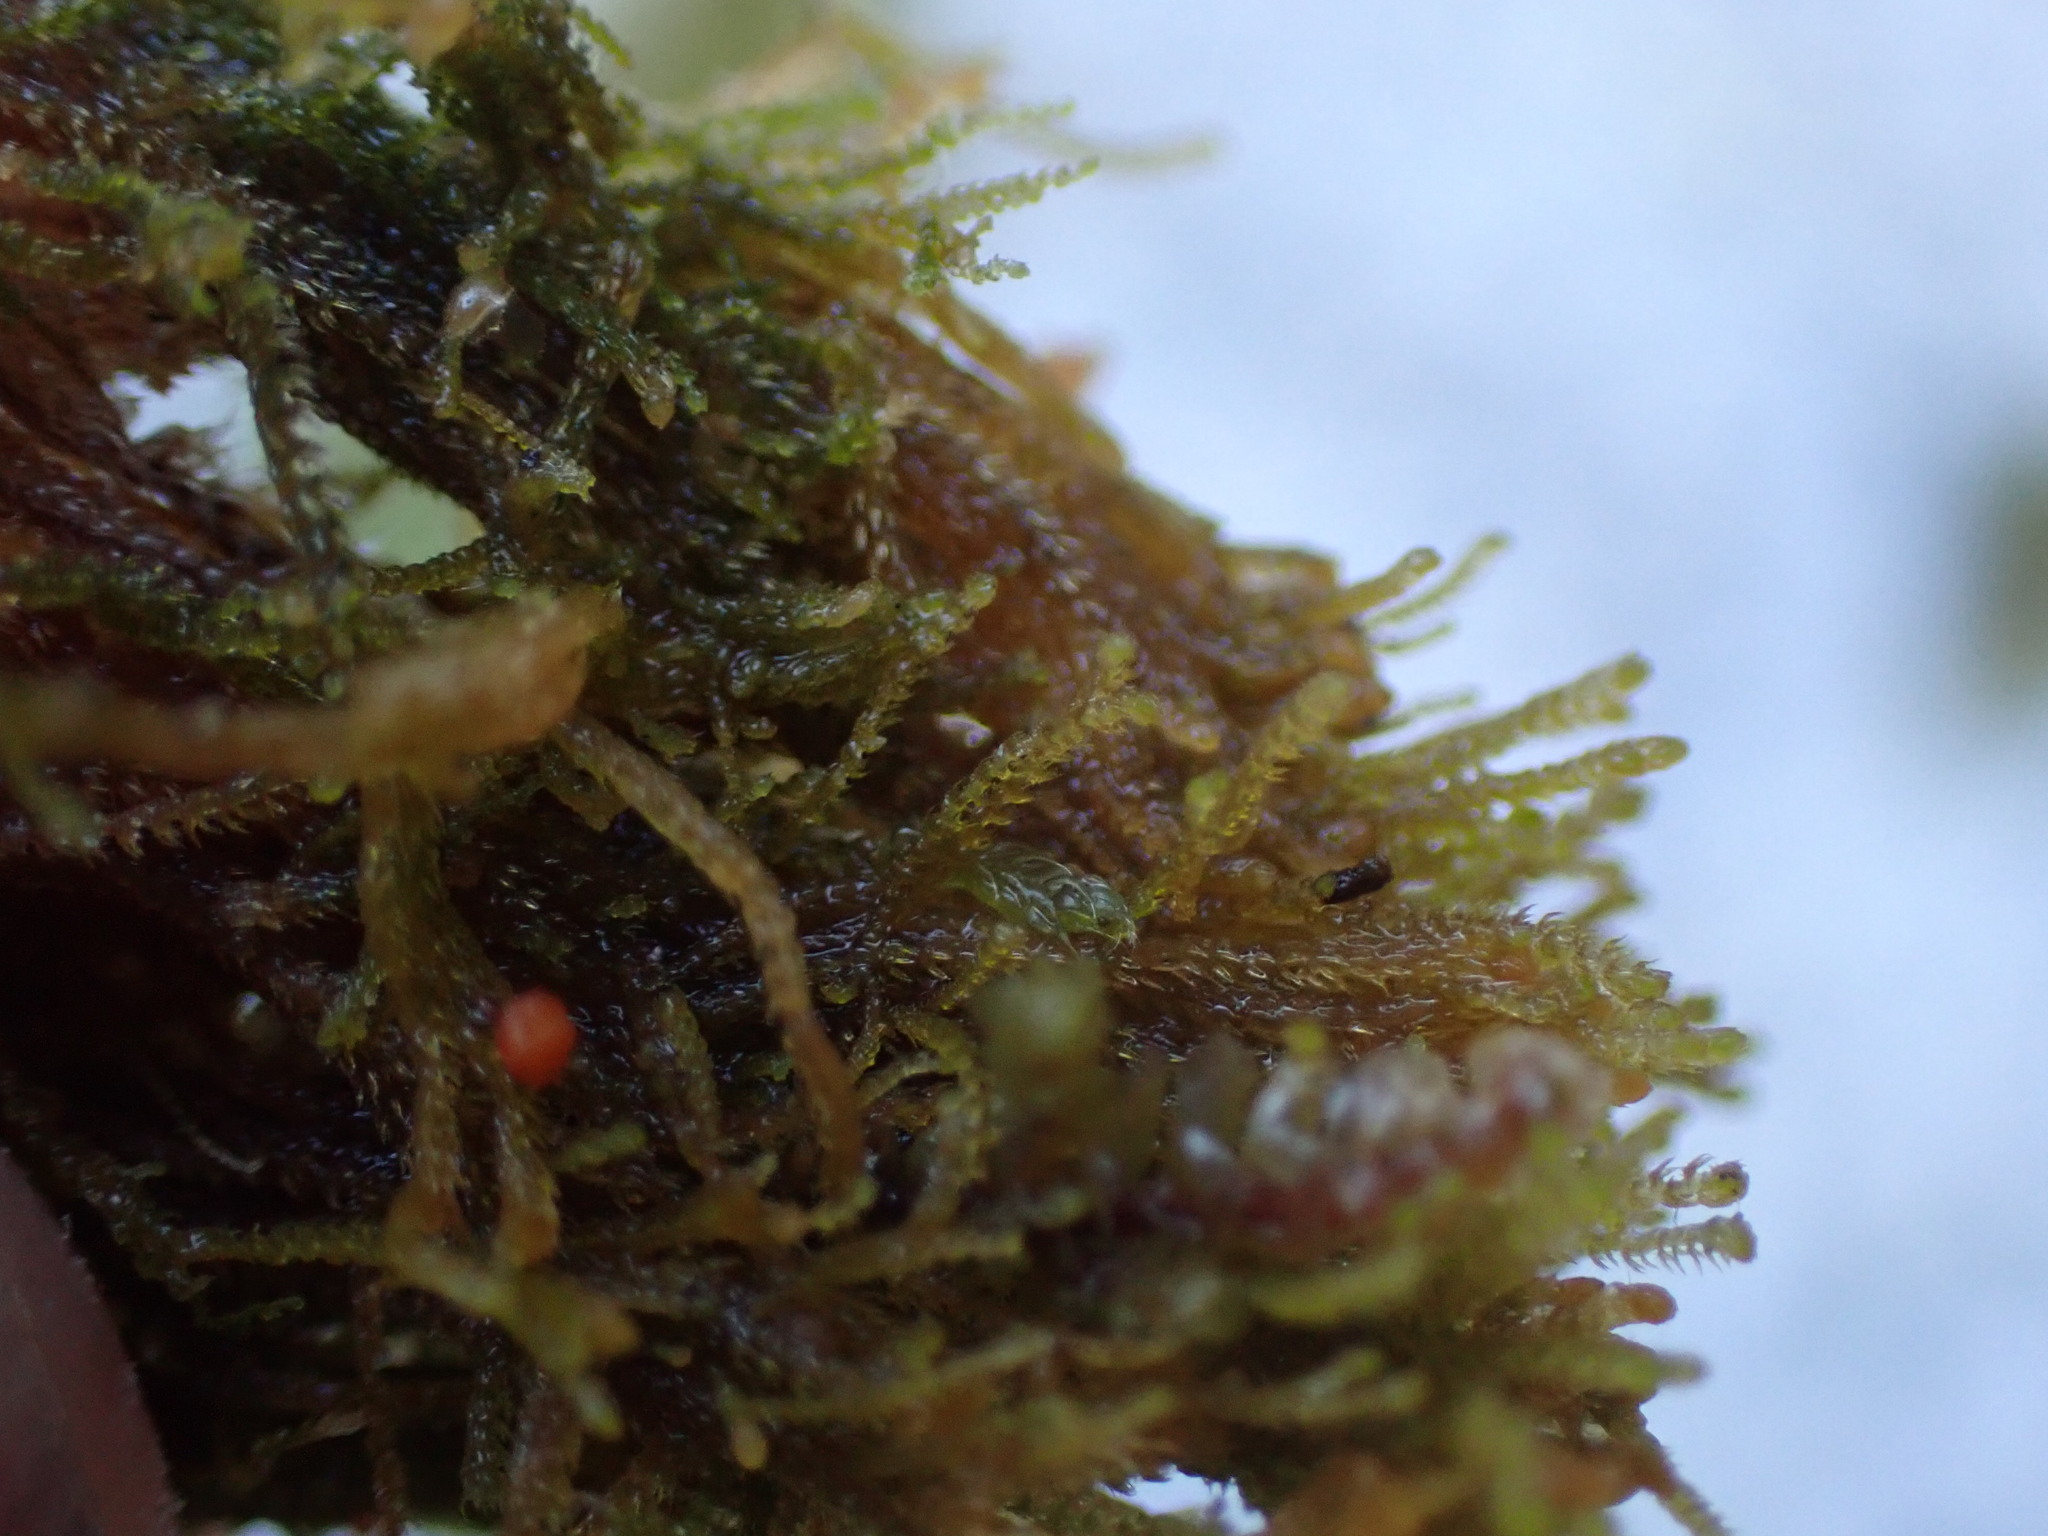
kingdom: Plantae
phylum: Marchantiophyta
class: Jungermanniopsida
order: Jungermanniales
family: Anastrophyllaceae
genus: Tetralophozia
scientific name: Tetralophozia setiformis
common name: Monster pawwort
